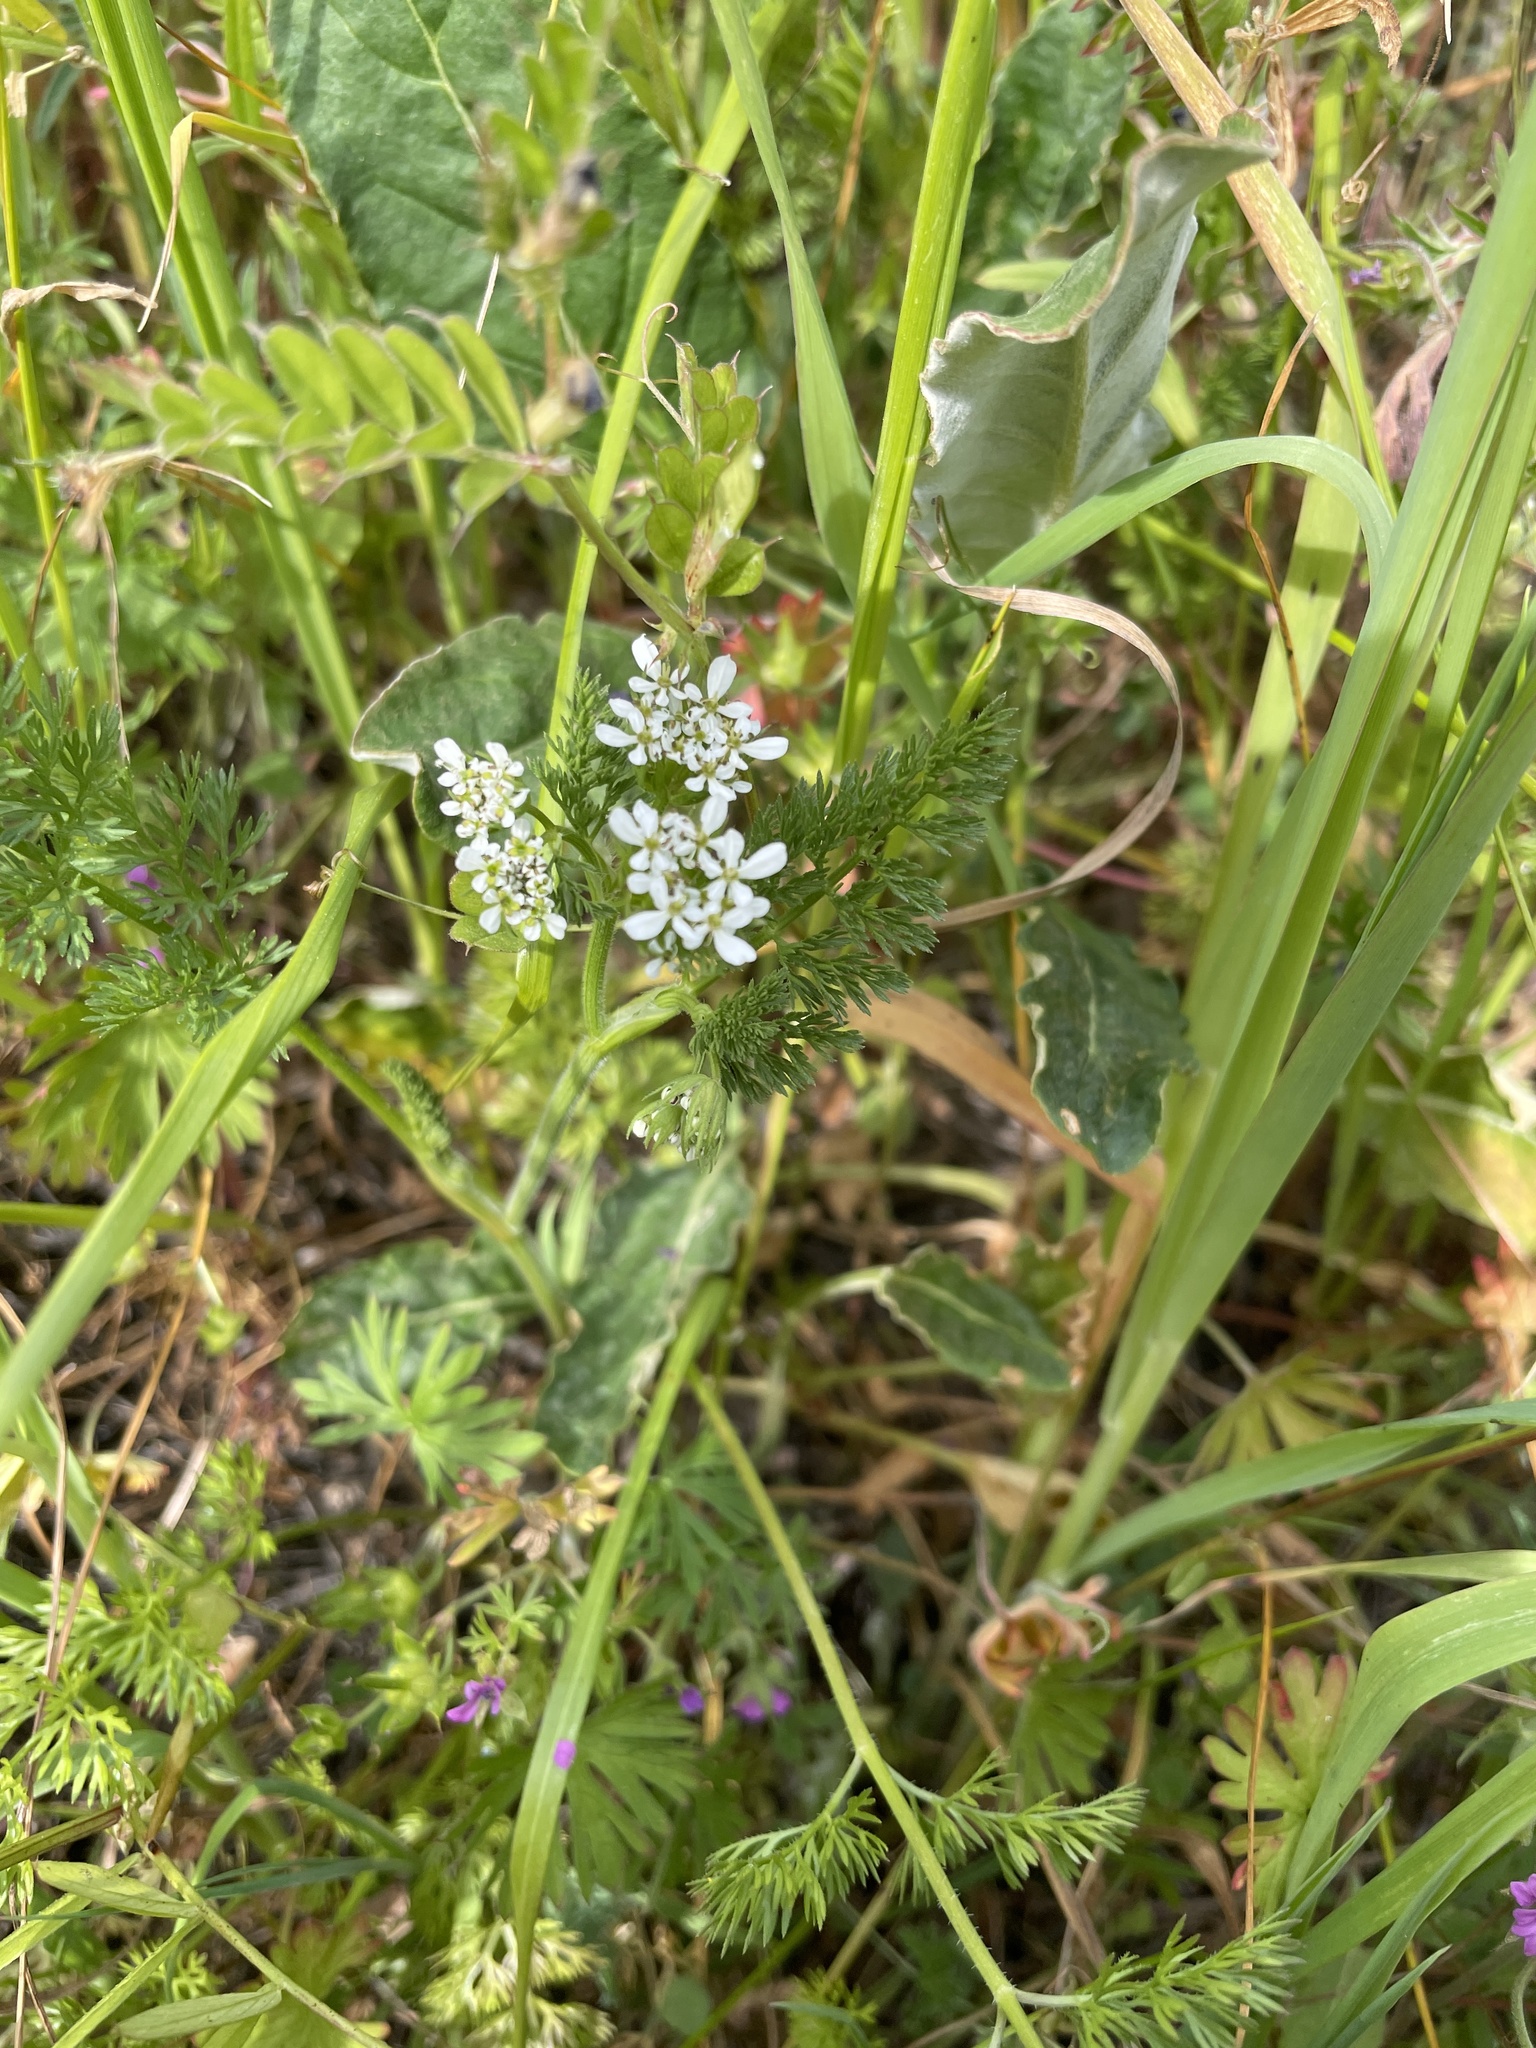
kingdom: Plantae
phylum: Tracheophyta
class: Magnoliopsida
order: Apiales
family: Apiaceae
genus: Scandix
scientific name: Scandix pecten-veneris
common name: Shepherd's-needle
